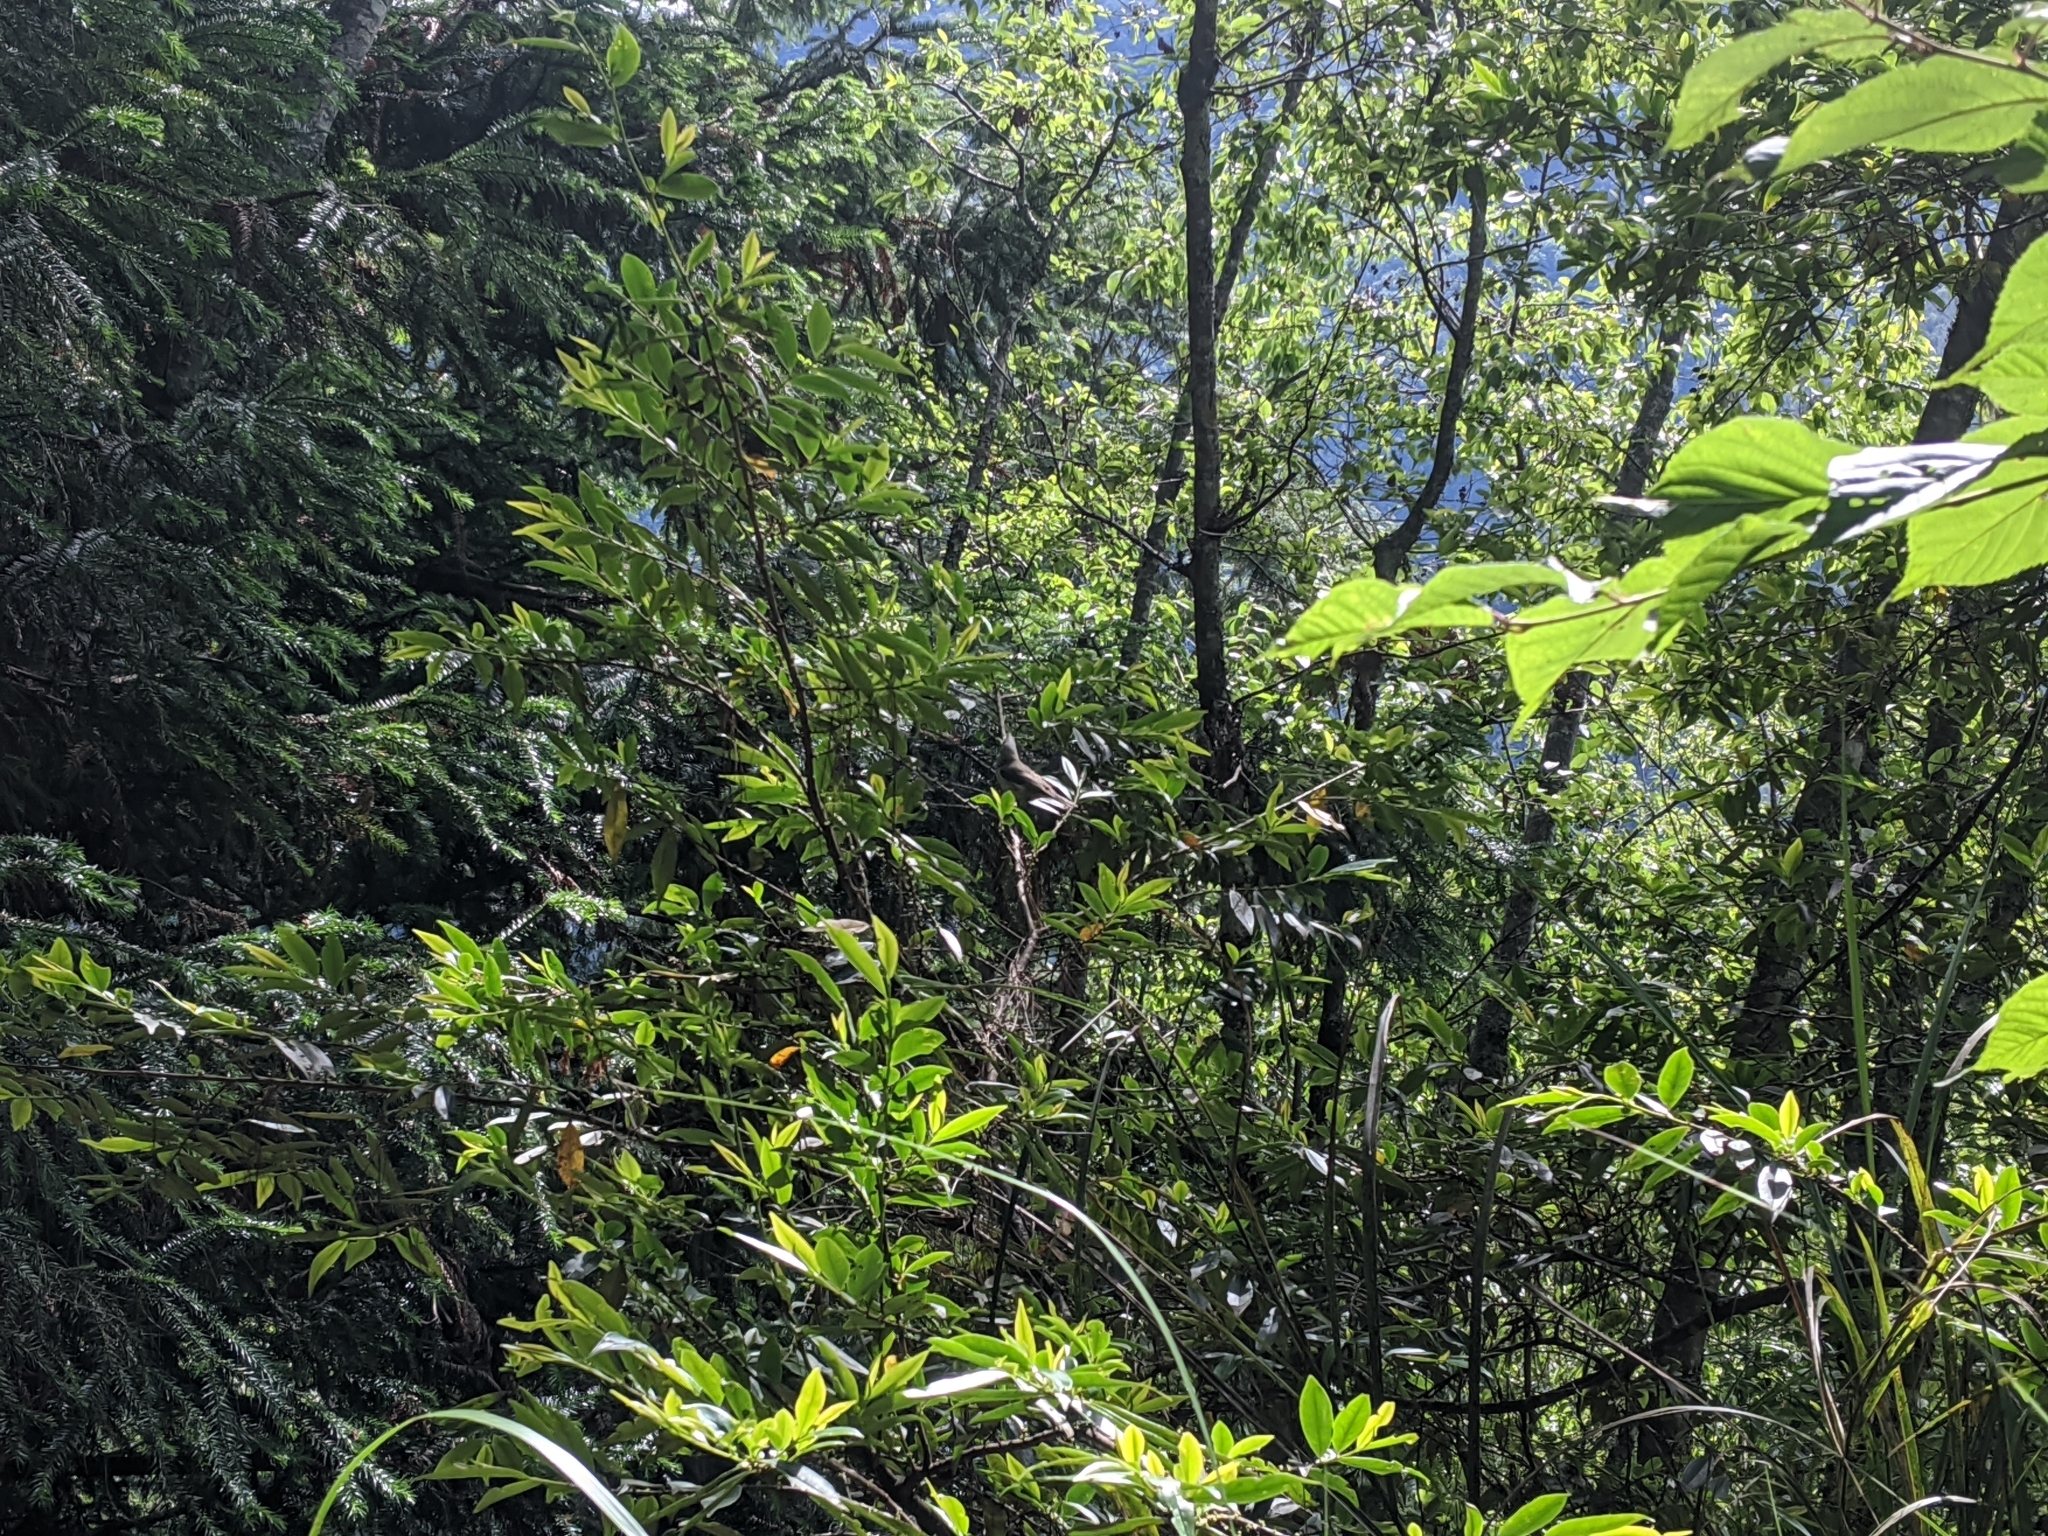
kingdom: Animalia
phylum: Chordata
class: Aves
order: Passeriformes
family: Zosteropidae
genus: Yuhina
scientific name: Yuhina brunneiceps
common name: Taiwan yuhina
